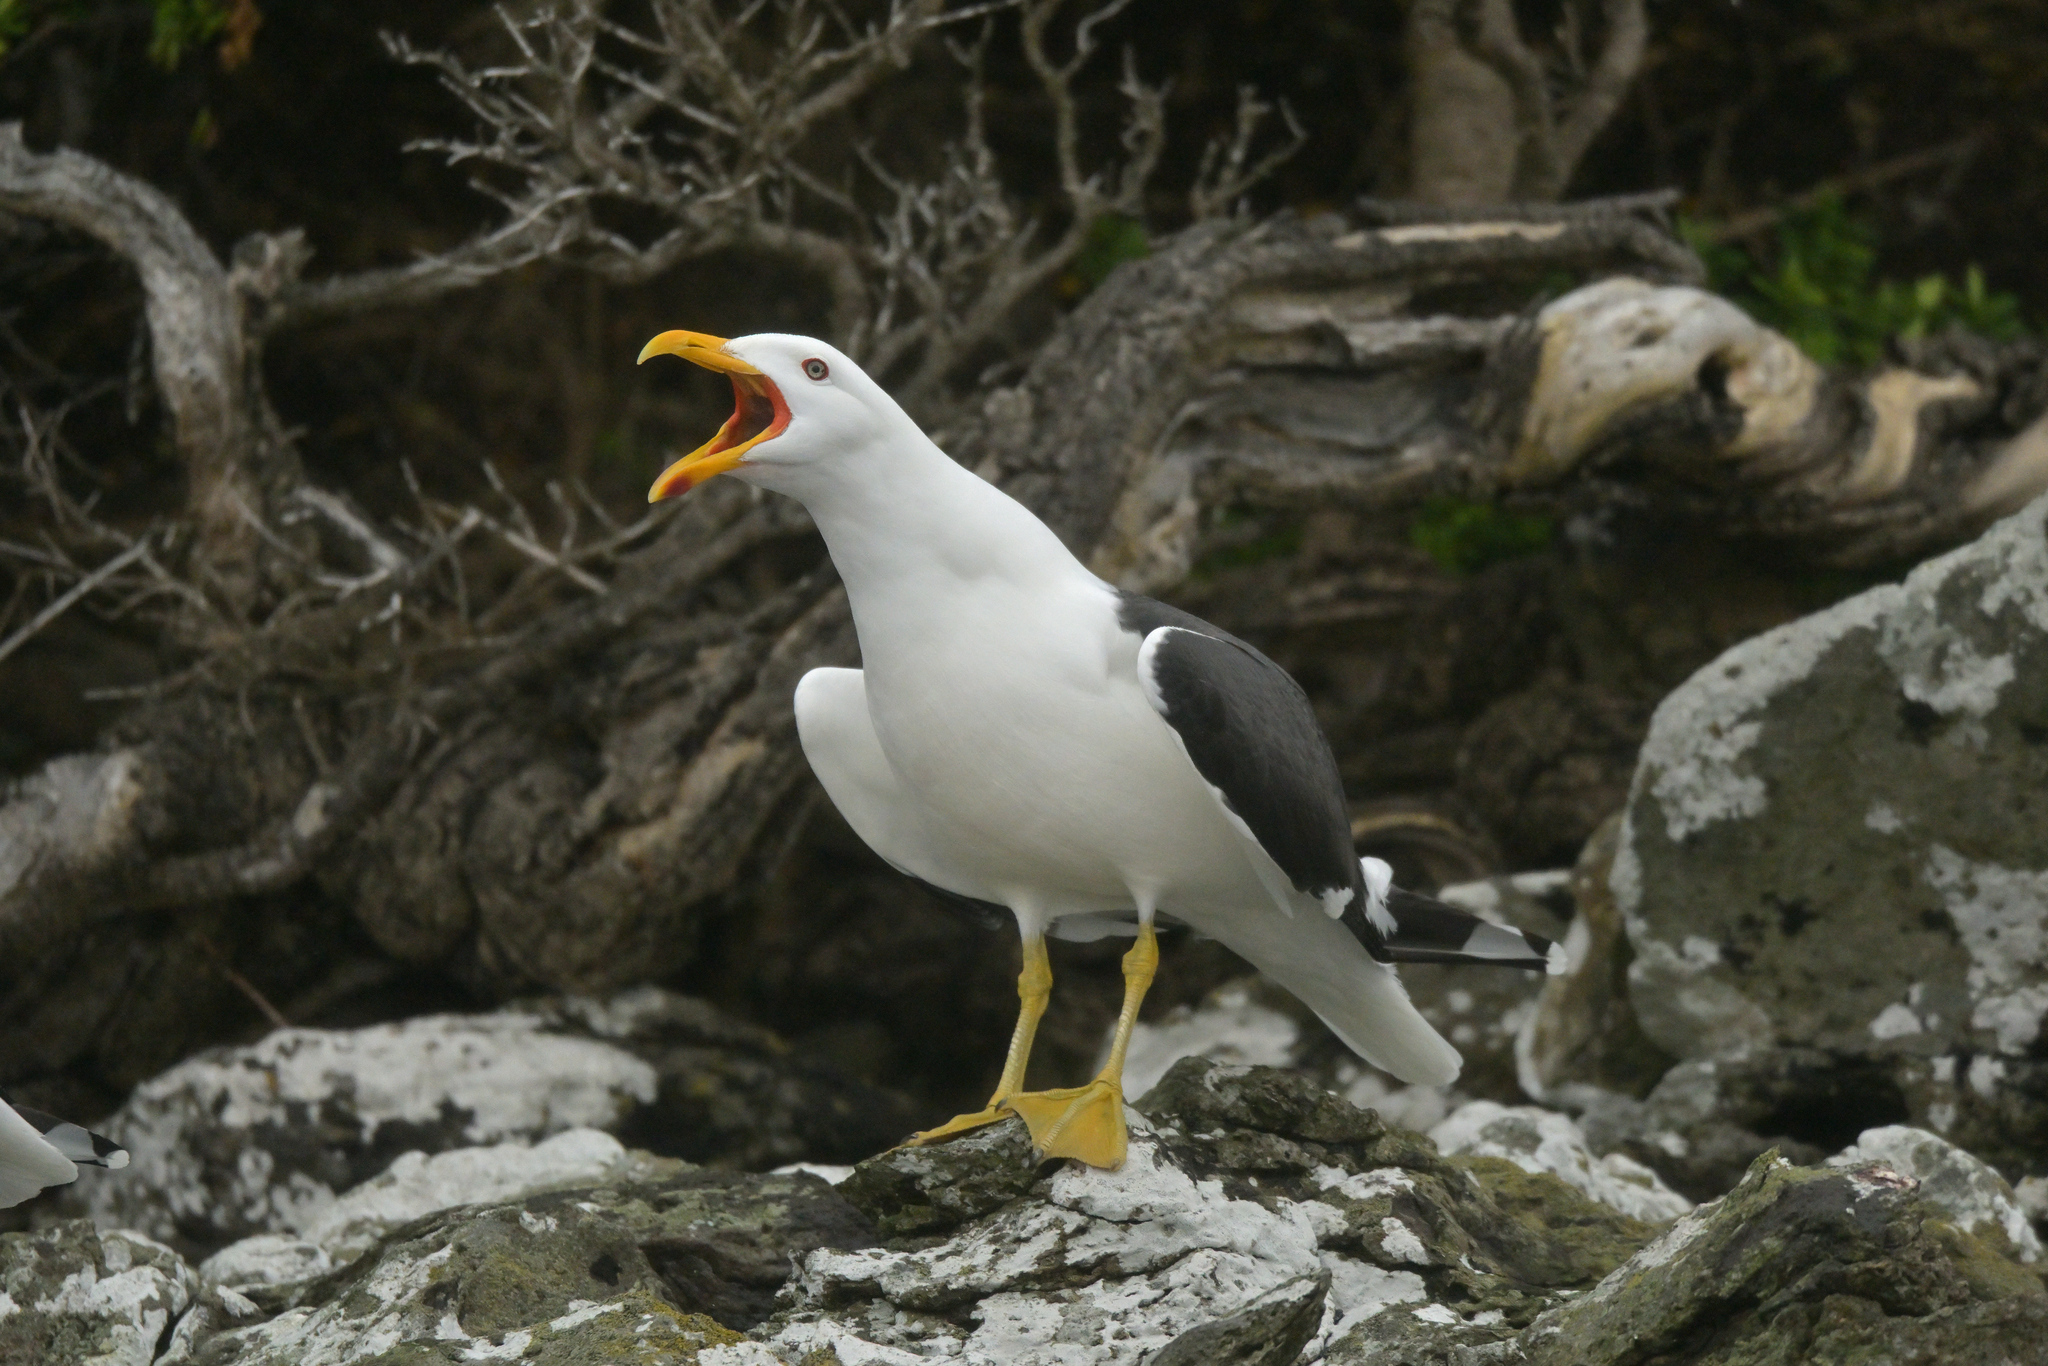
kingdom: Animalia
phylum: Chordata
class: Aves
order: Charadriiformes
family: Laridae
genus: Larus
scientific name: Larus dominicanus
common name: Kelp gull
